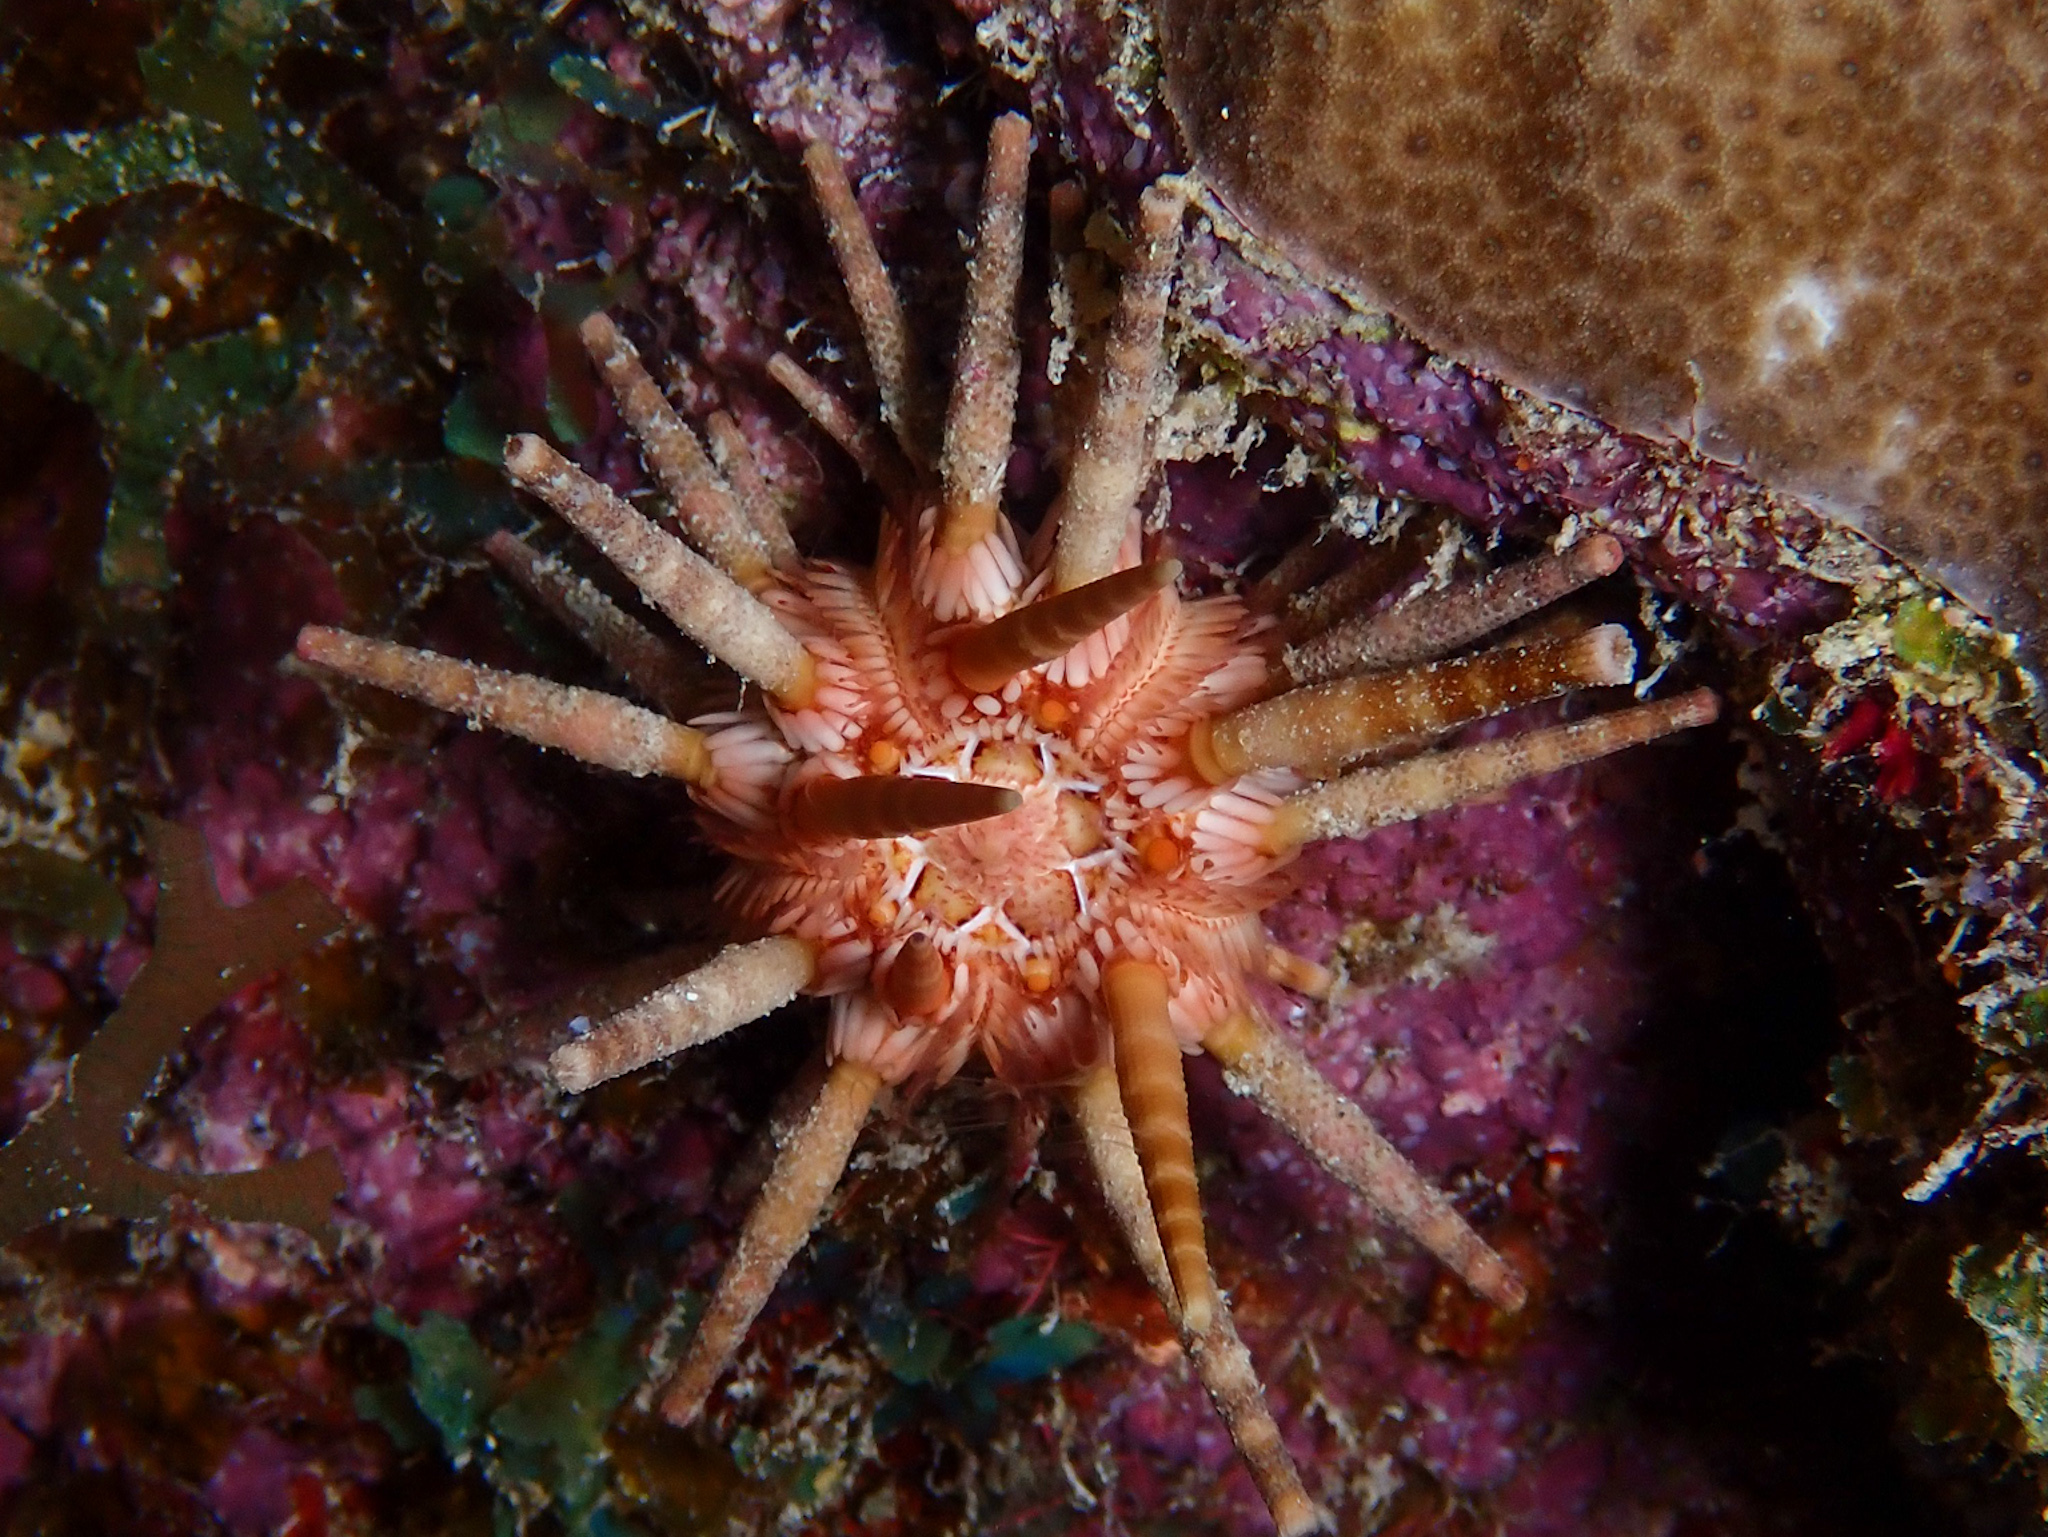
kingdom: Animalia
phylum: Echinodermata
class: Echinoidea
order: Cidaroida
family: Cidaridae
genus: Eucidaris
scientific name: Eucidaris tribuloides
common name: Slate pencil urchin
